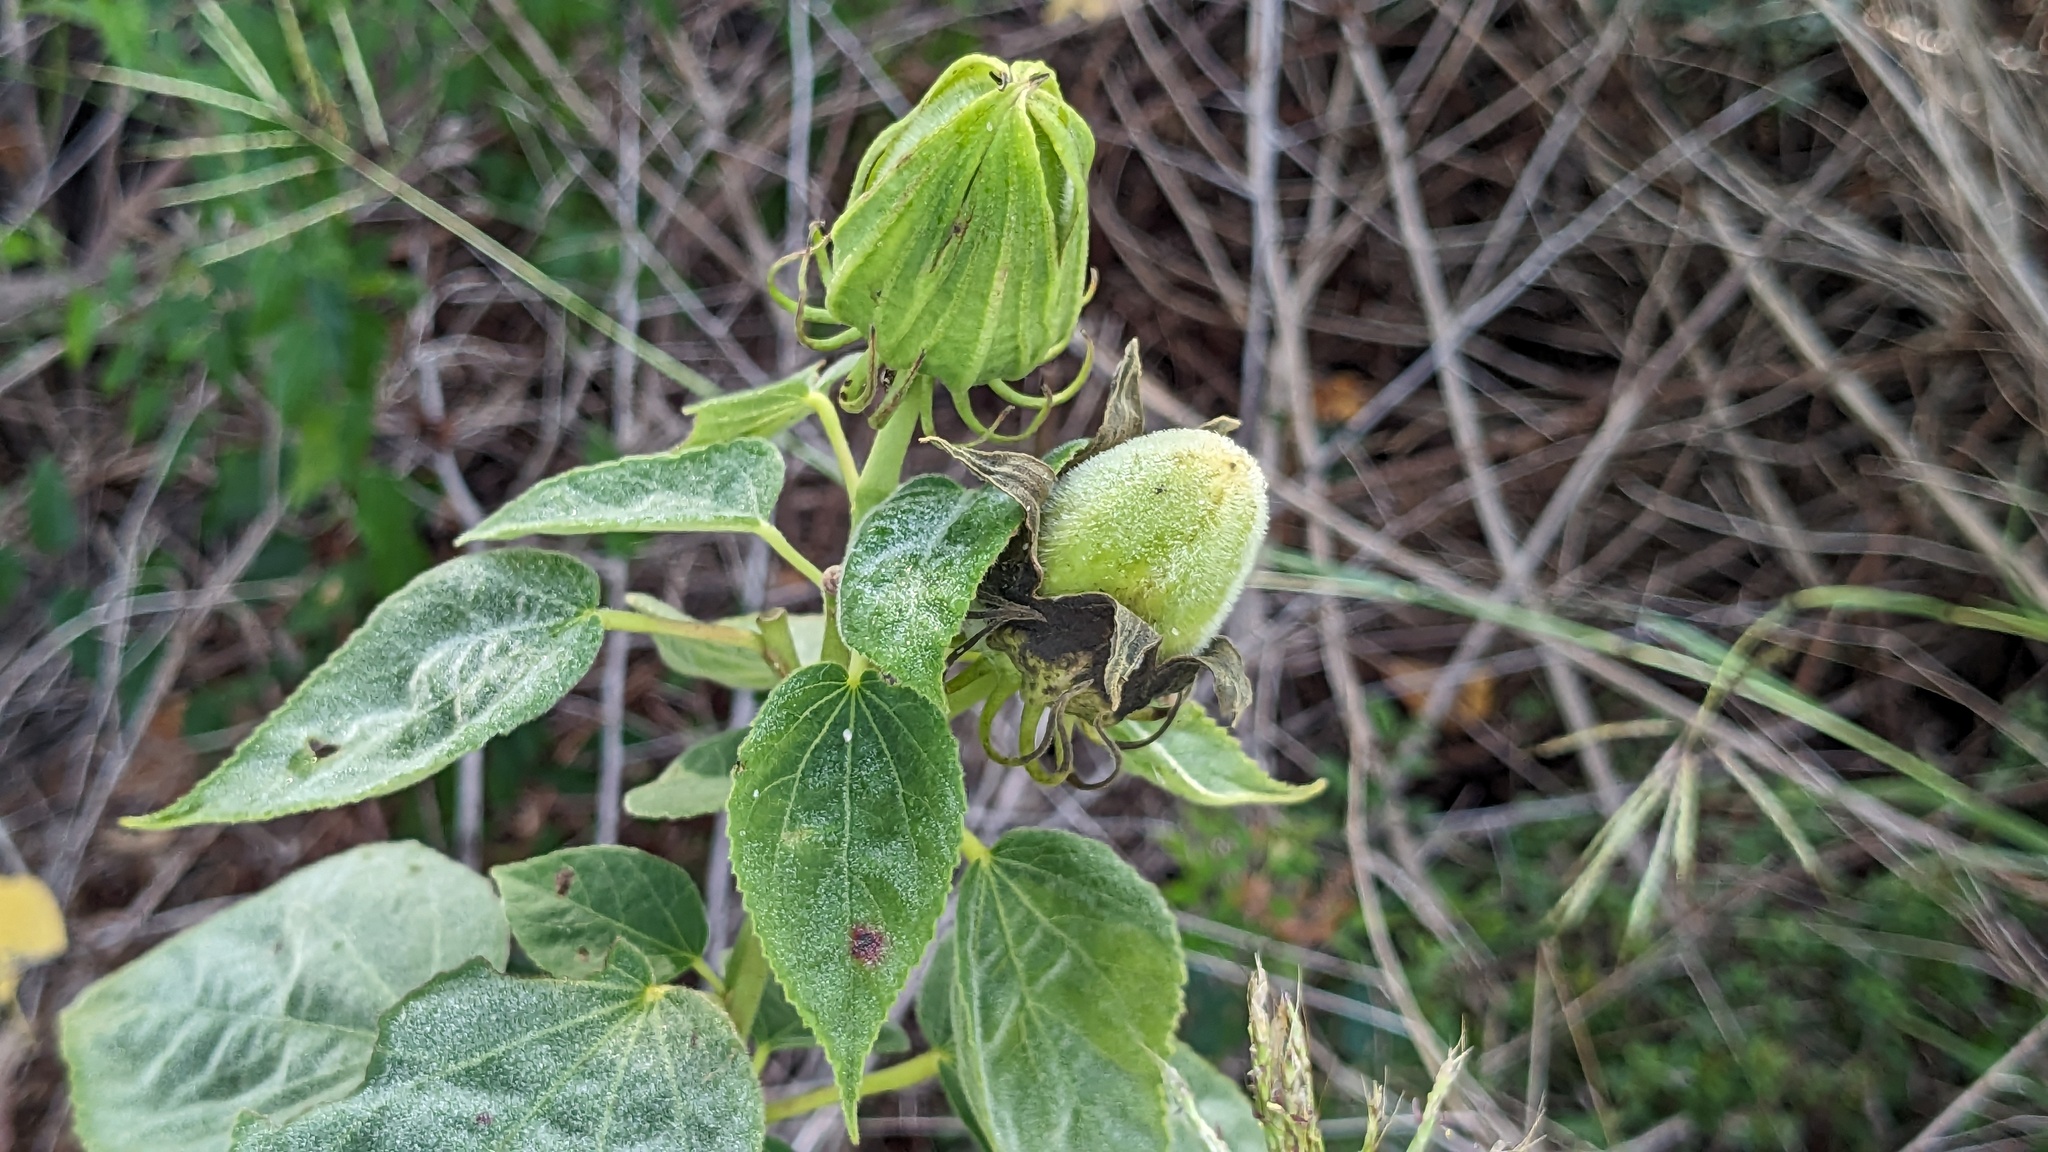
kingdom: Plantae
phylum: Tracheophyta
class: Magnoliopsida
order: Malvales
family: Malvaceae
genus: Hibiscus
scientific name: Hibiscus moscheutos
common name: Common rose-mallow
